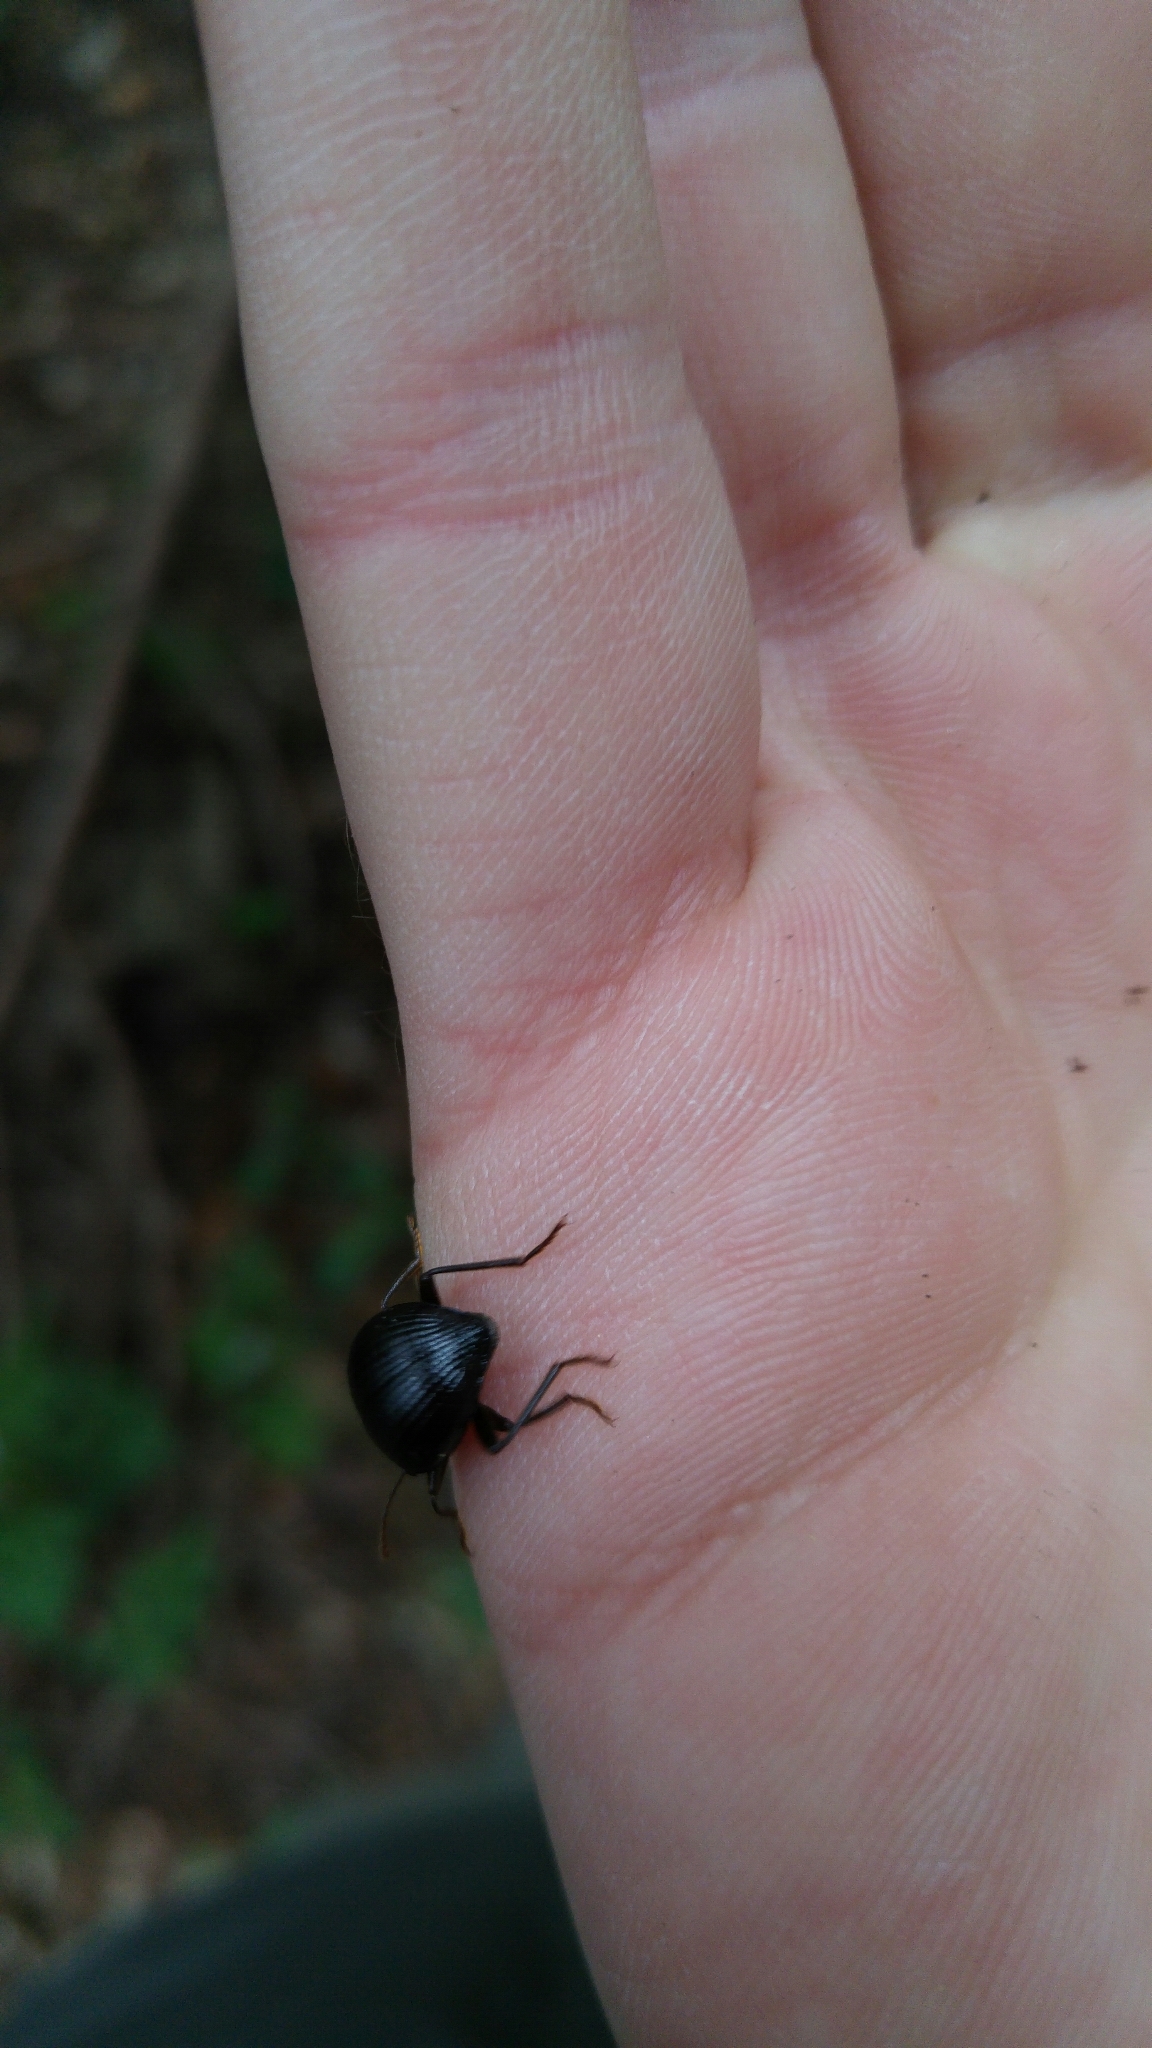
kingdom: Animalia
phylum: Arthropoda
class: Insecta
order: Coleoptera
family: Tenebrionidae
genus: Accanthopus
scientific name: Accanthopus velikensis
